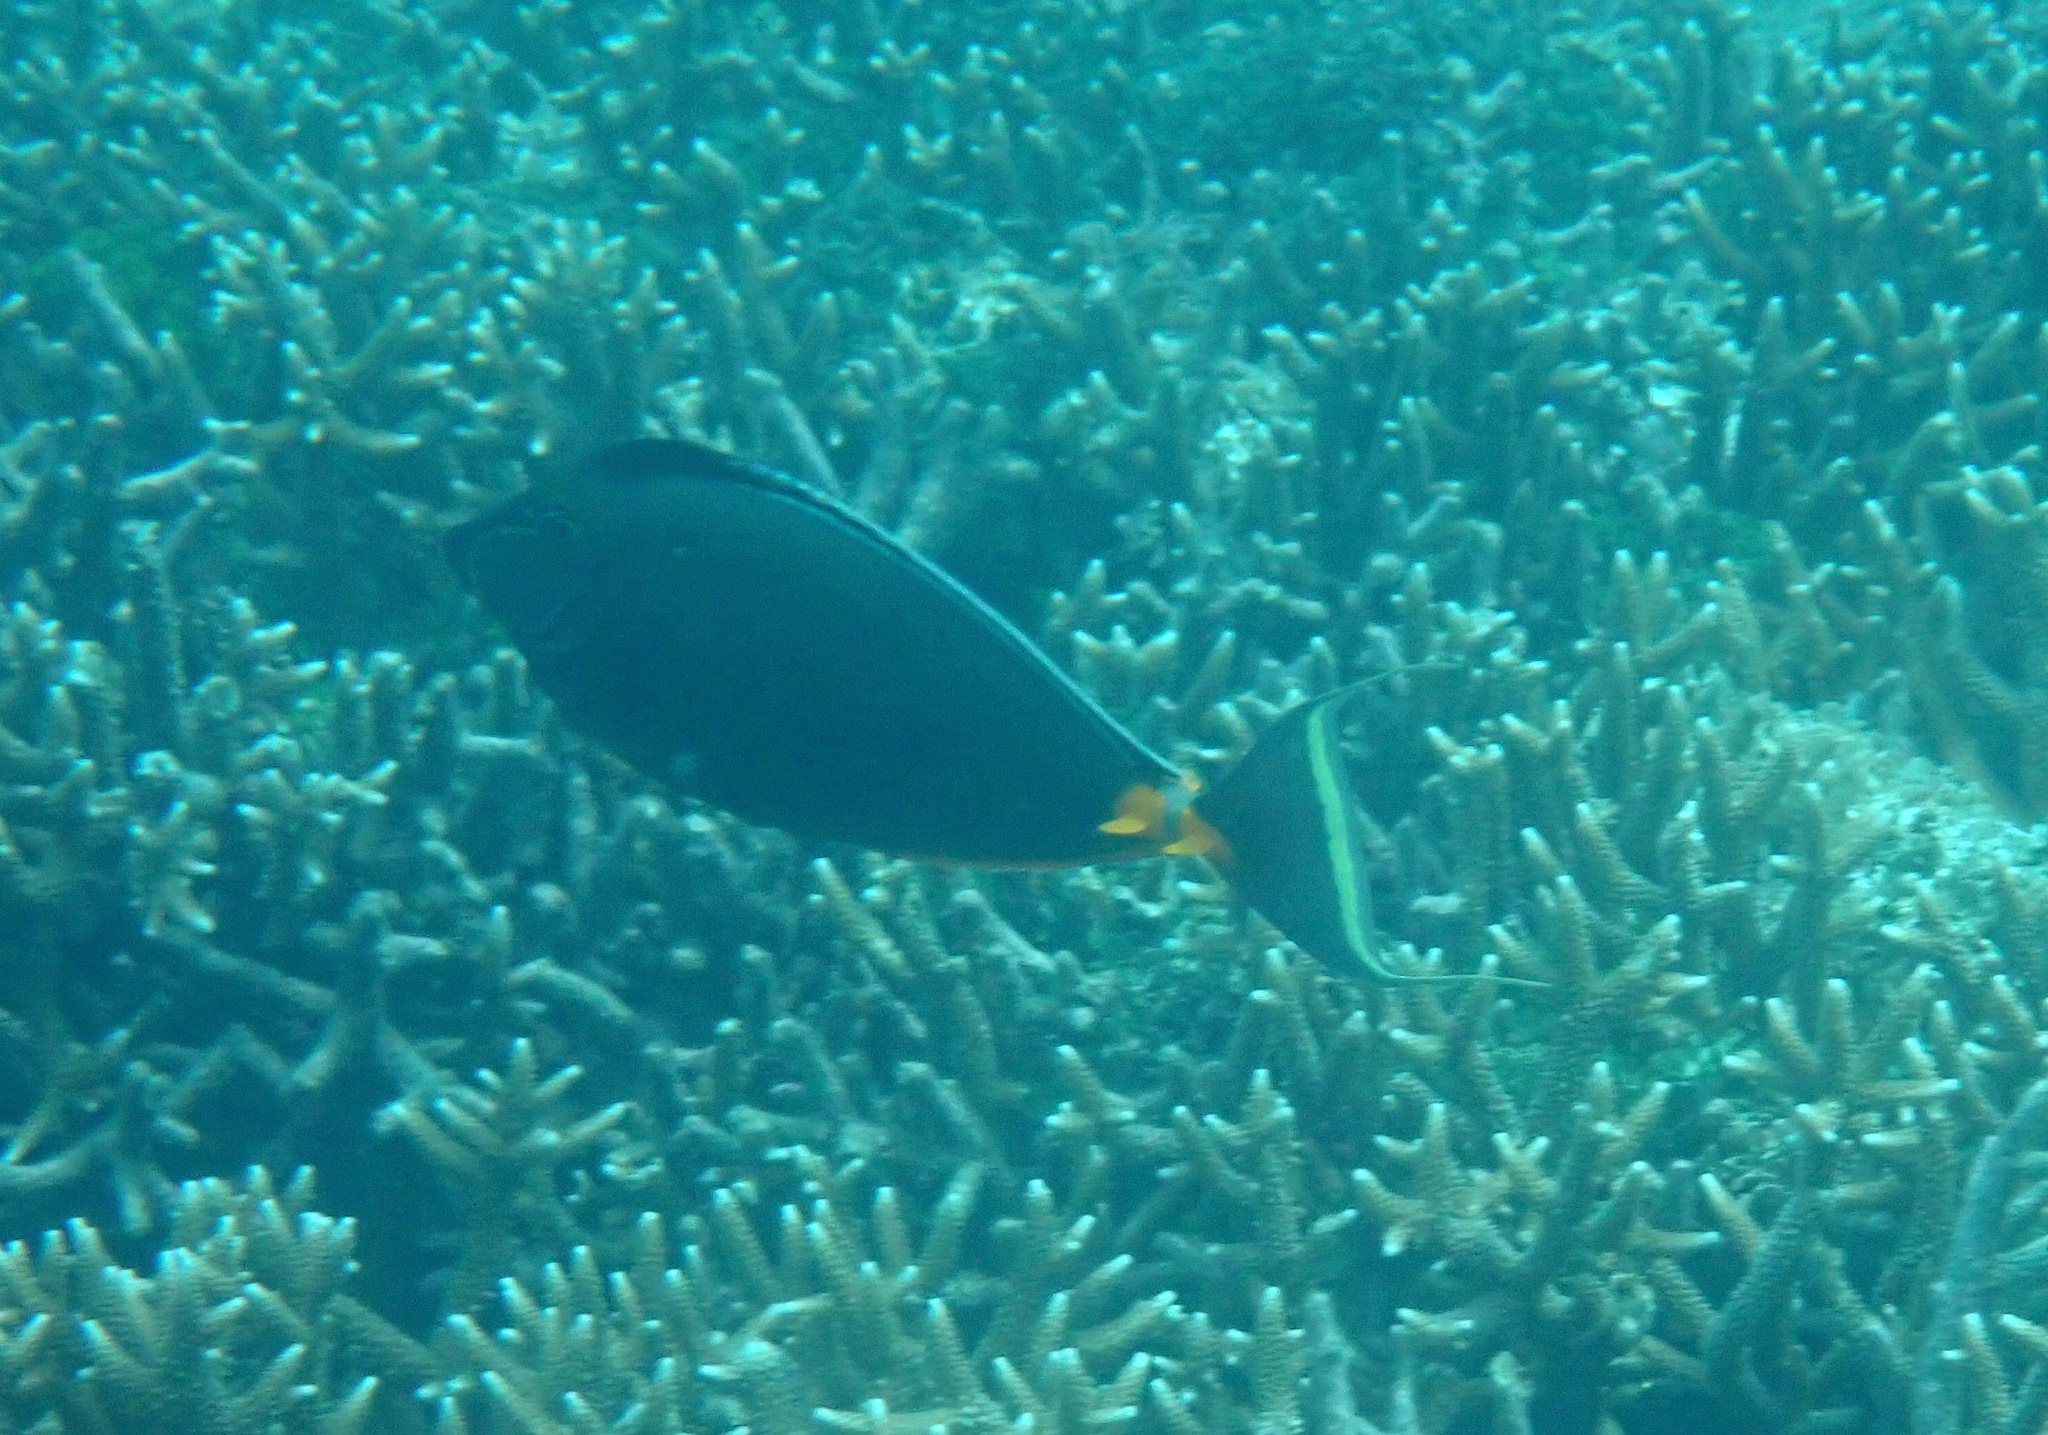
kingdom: Animalia
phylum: Chordata
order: Perciformes
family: Acanthuridae
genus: Naso
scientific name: Naso lituratus
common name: Orangespine unicornfish
